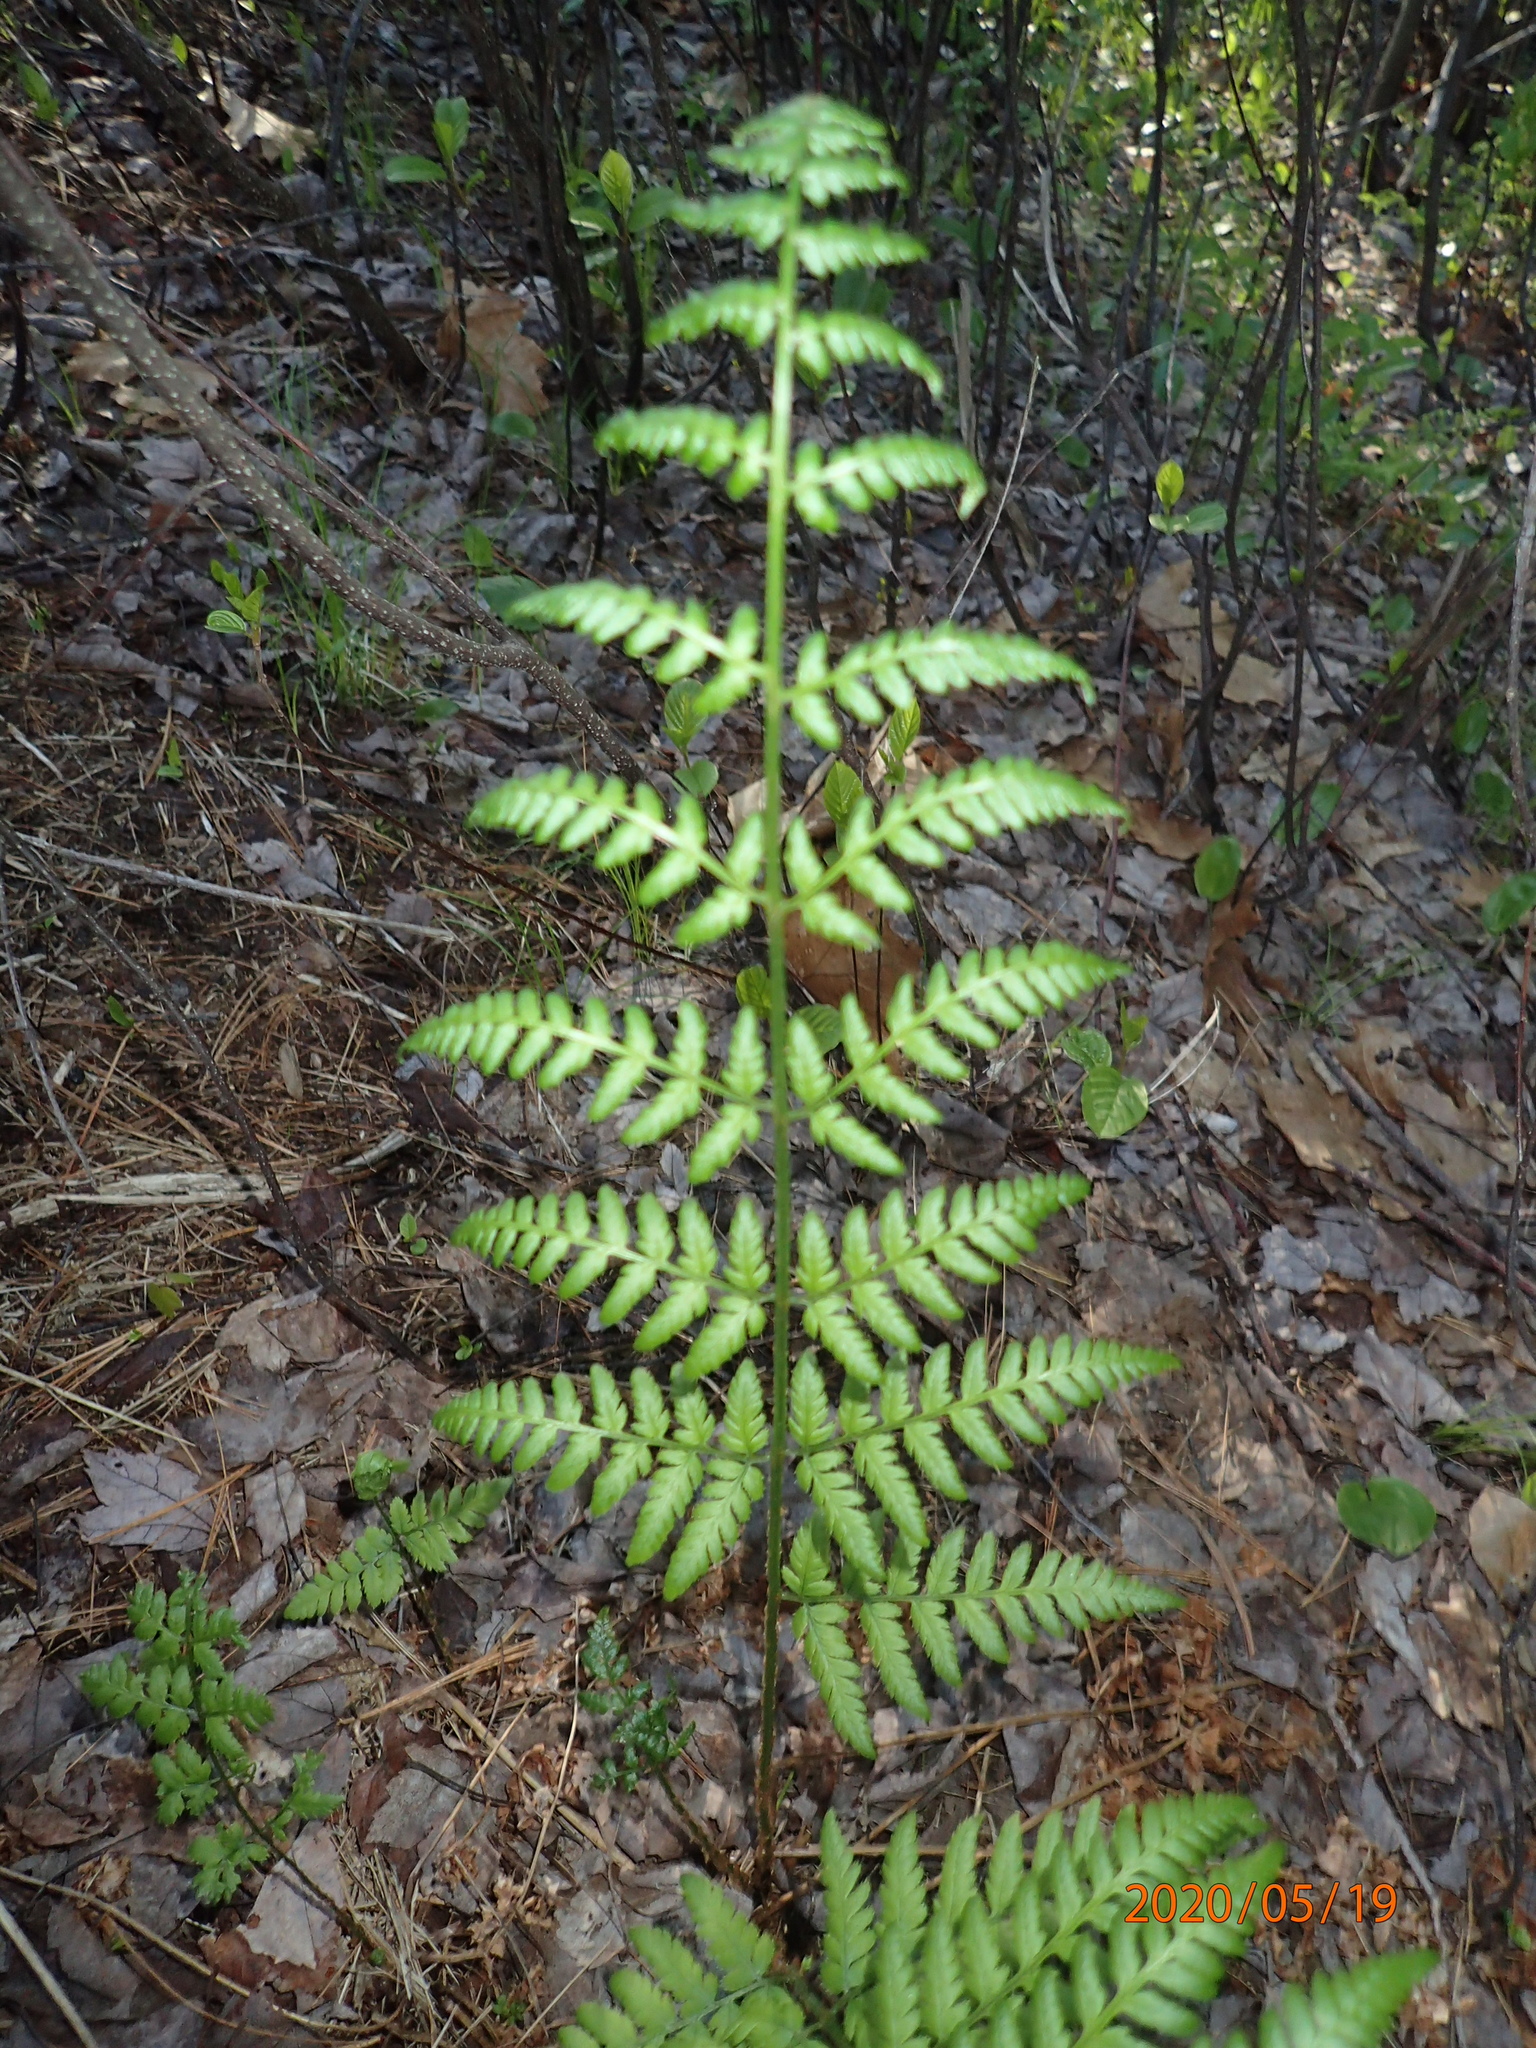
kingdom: Plantae
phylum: Tracheophyta
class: Polypodiopsida
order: Polypodiales
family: Dryopteridaceae
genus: Dryopteris
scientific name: Dryopteris carthusiana
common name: Narrow buckler-fern
